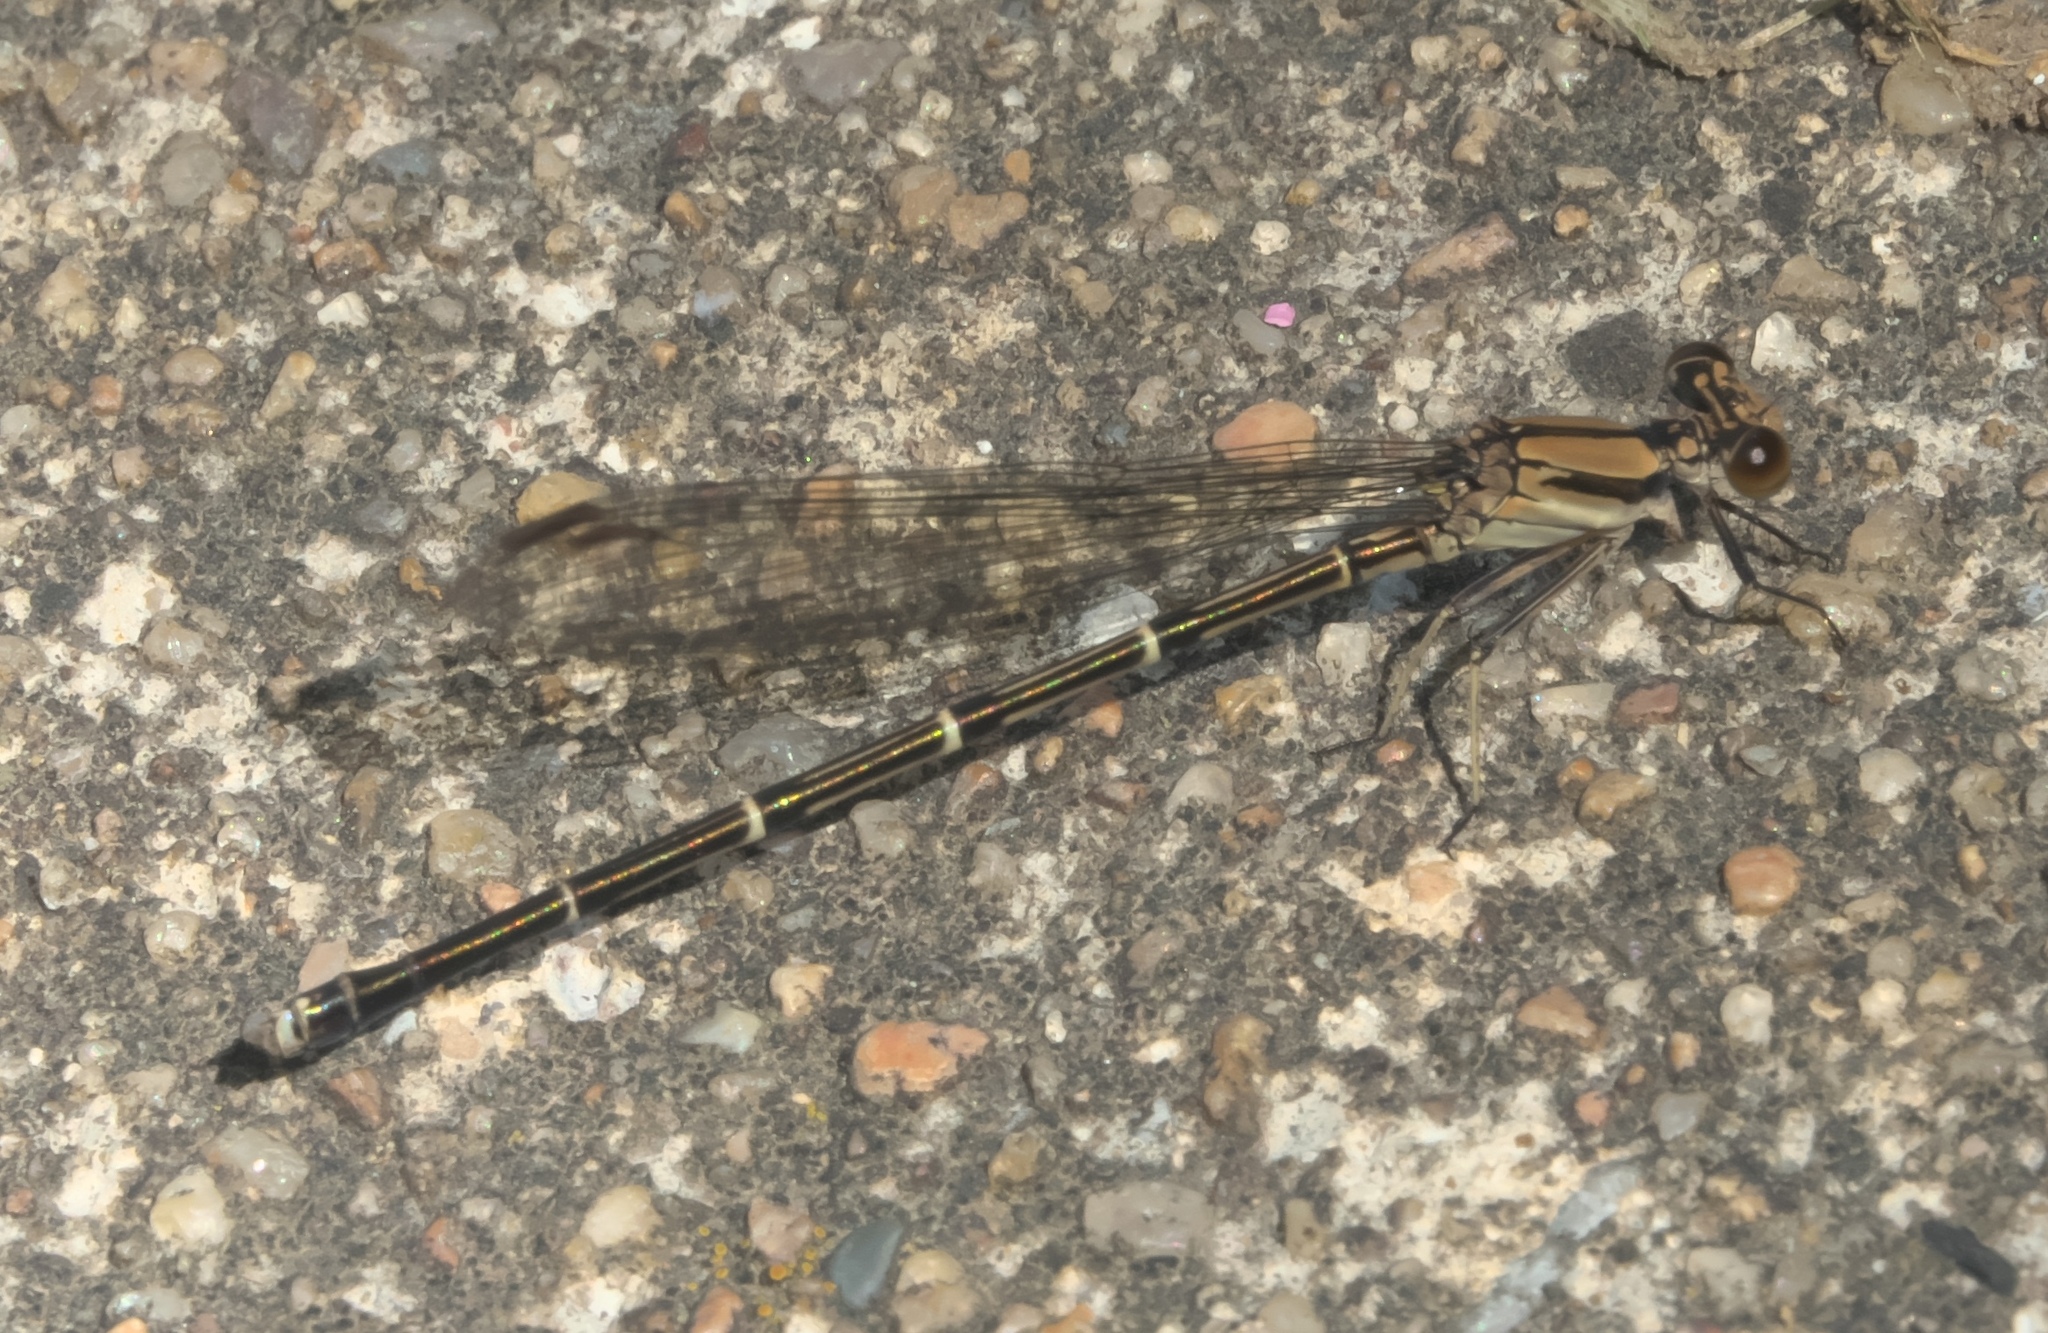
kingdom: Animalia
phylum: Arthropoda
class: Insecta
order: Odonata
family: Coenagrionidae
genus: Argia
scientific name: Argia tibialis
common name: Blue-tipped dancer
